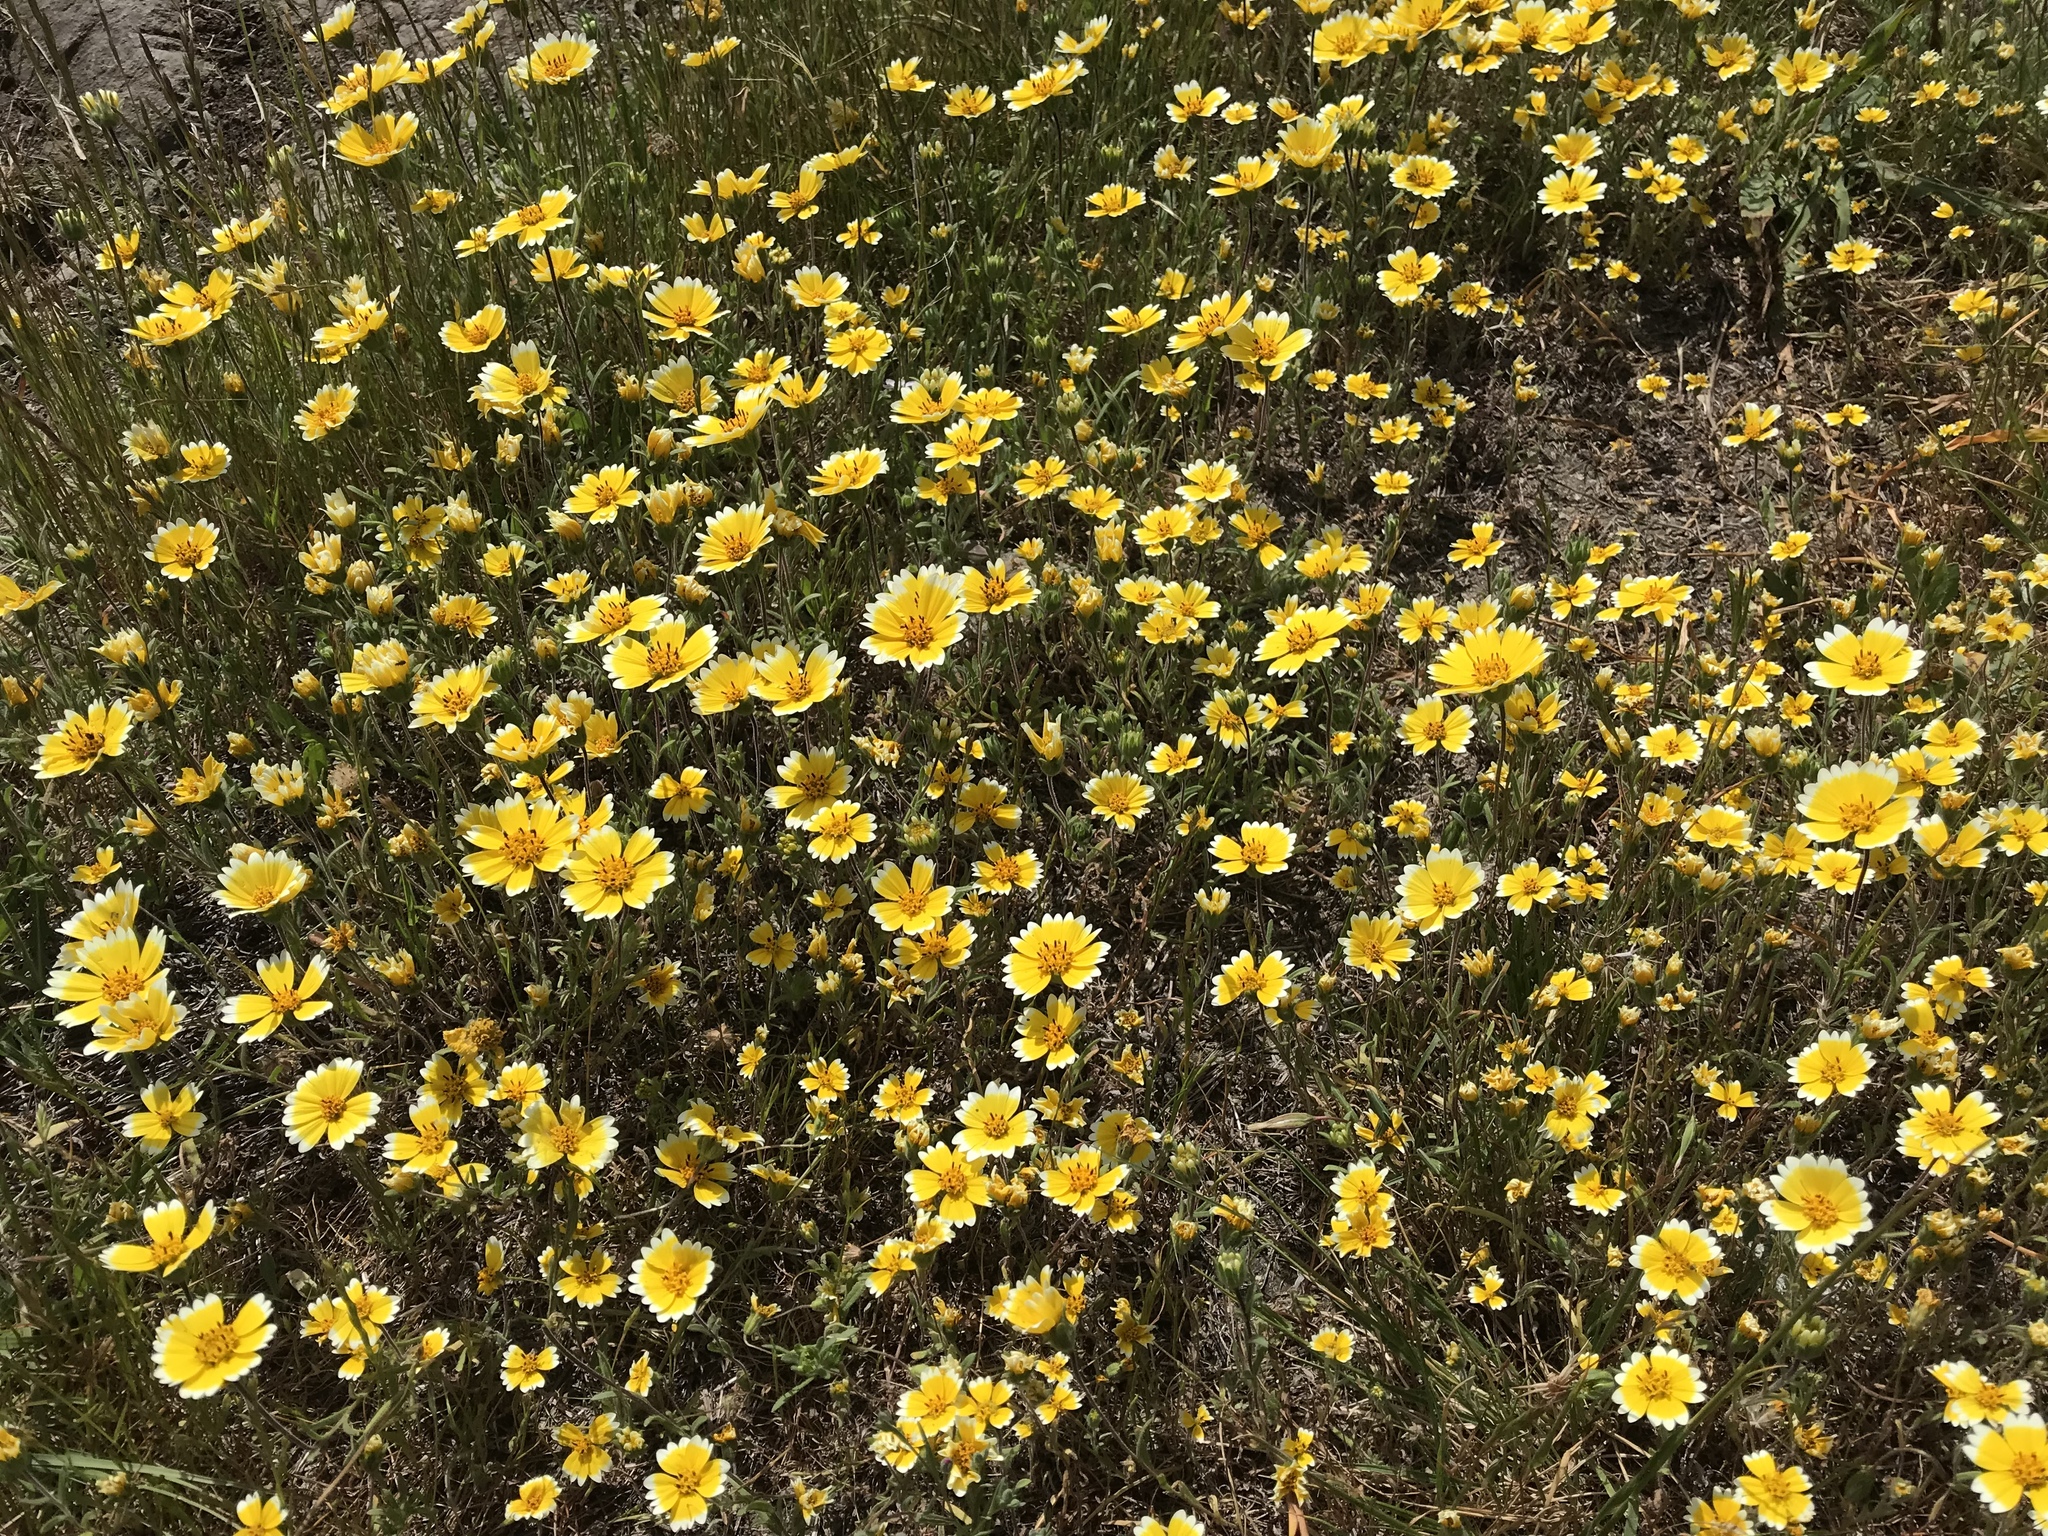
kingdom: Plantae
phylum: Tracheophyta
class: Magnoliopsida
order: Asterales
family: Asteraceae
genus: Layia
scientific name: Layia platyglossa
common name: Tidy-tips
